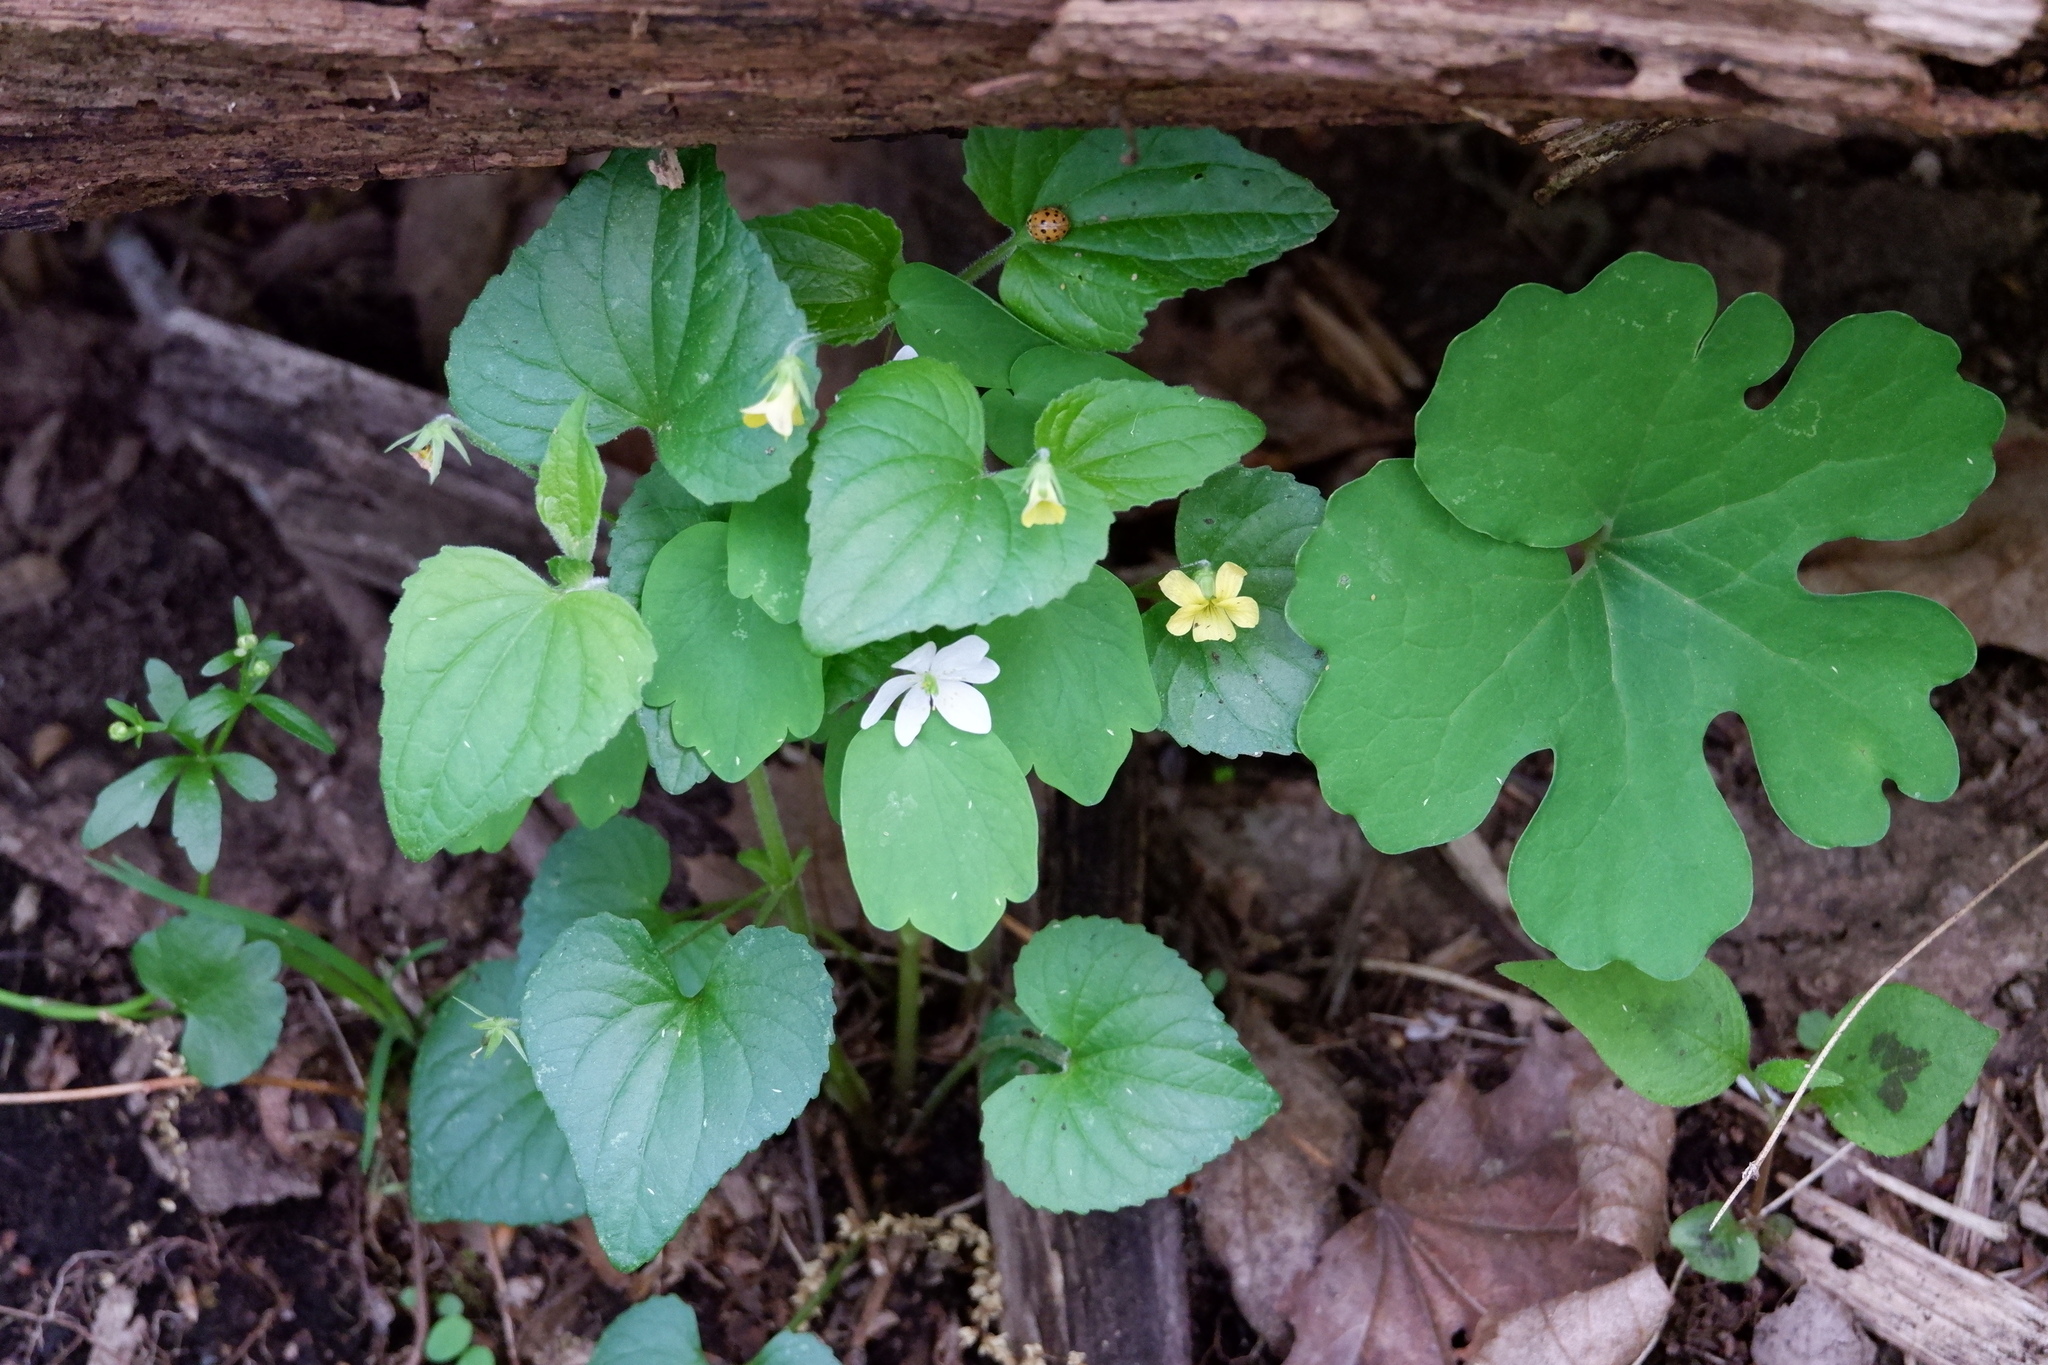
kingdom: Plantae
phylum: Tracheophyta
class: Magnoliopsida
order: Malpighiales
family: Violaceae
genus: Viola
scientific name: Viola eriocarpa
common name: Smooth yellow violet
